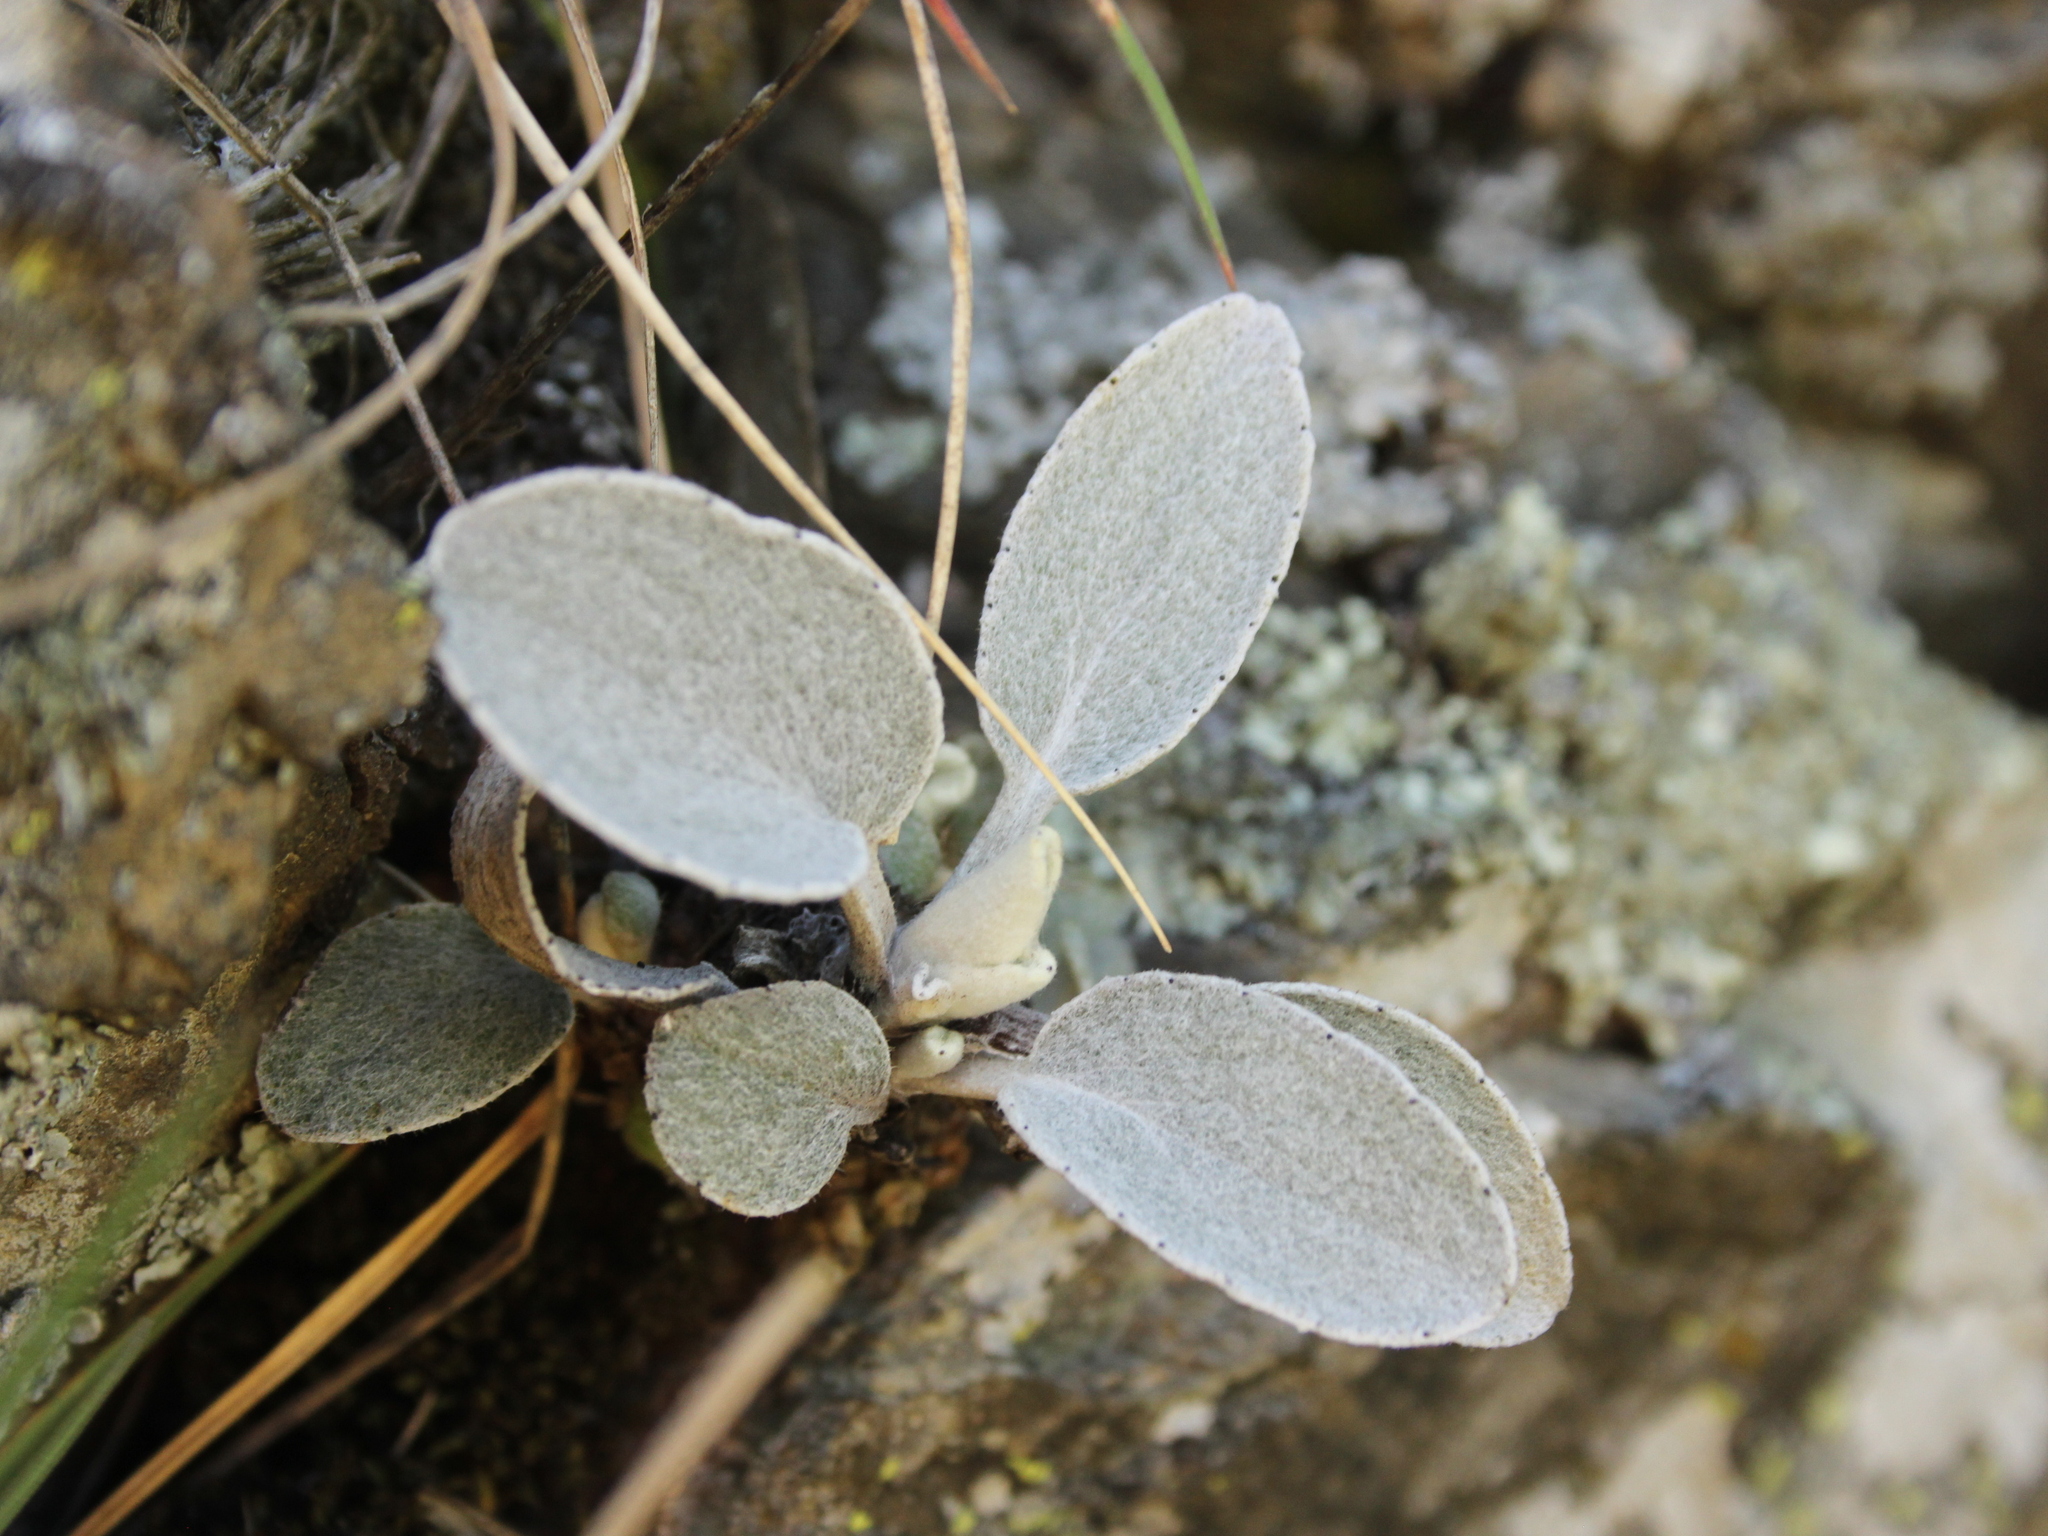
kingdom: Plantae
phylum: Tracheophyta
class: Magnoliopsida
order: Asterales
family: Asteraceae
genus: Brachyglottis
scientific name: Brachyglottis haastii
